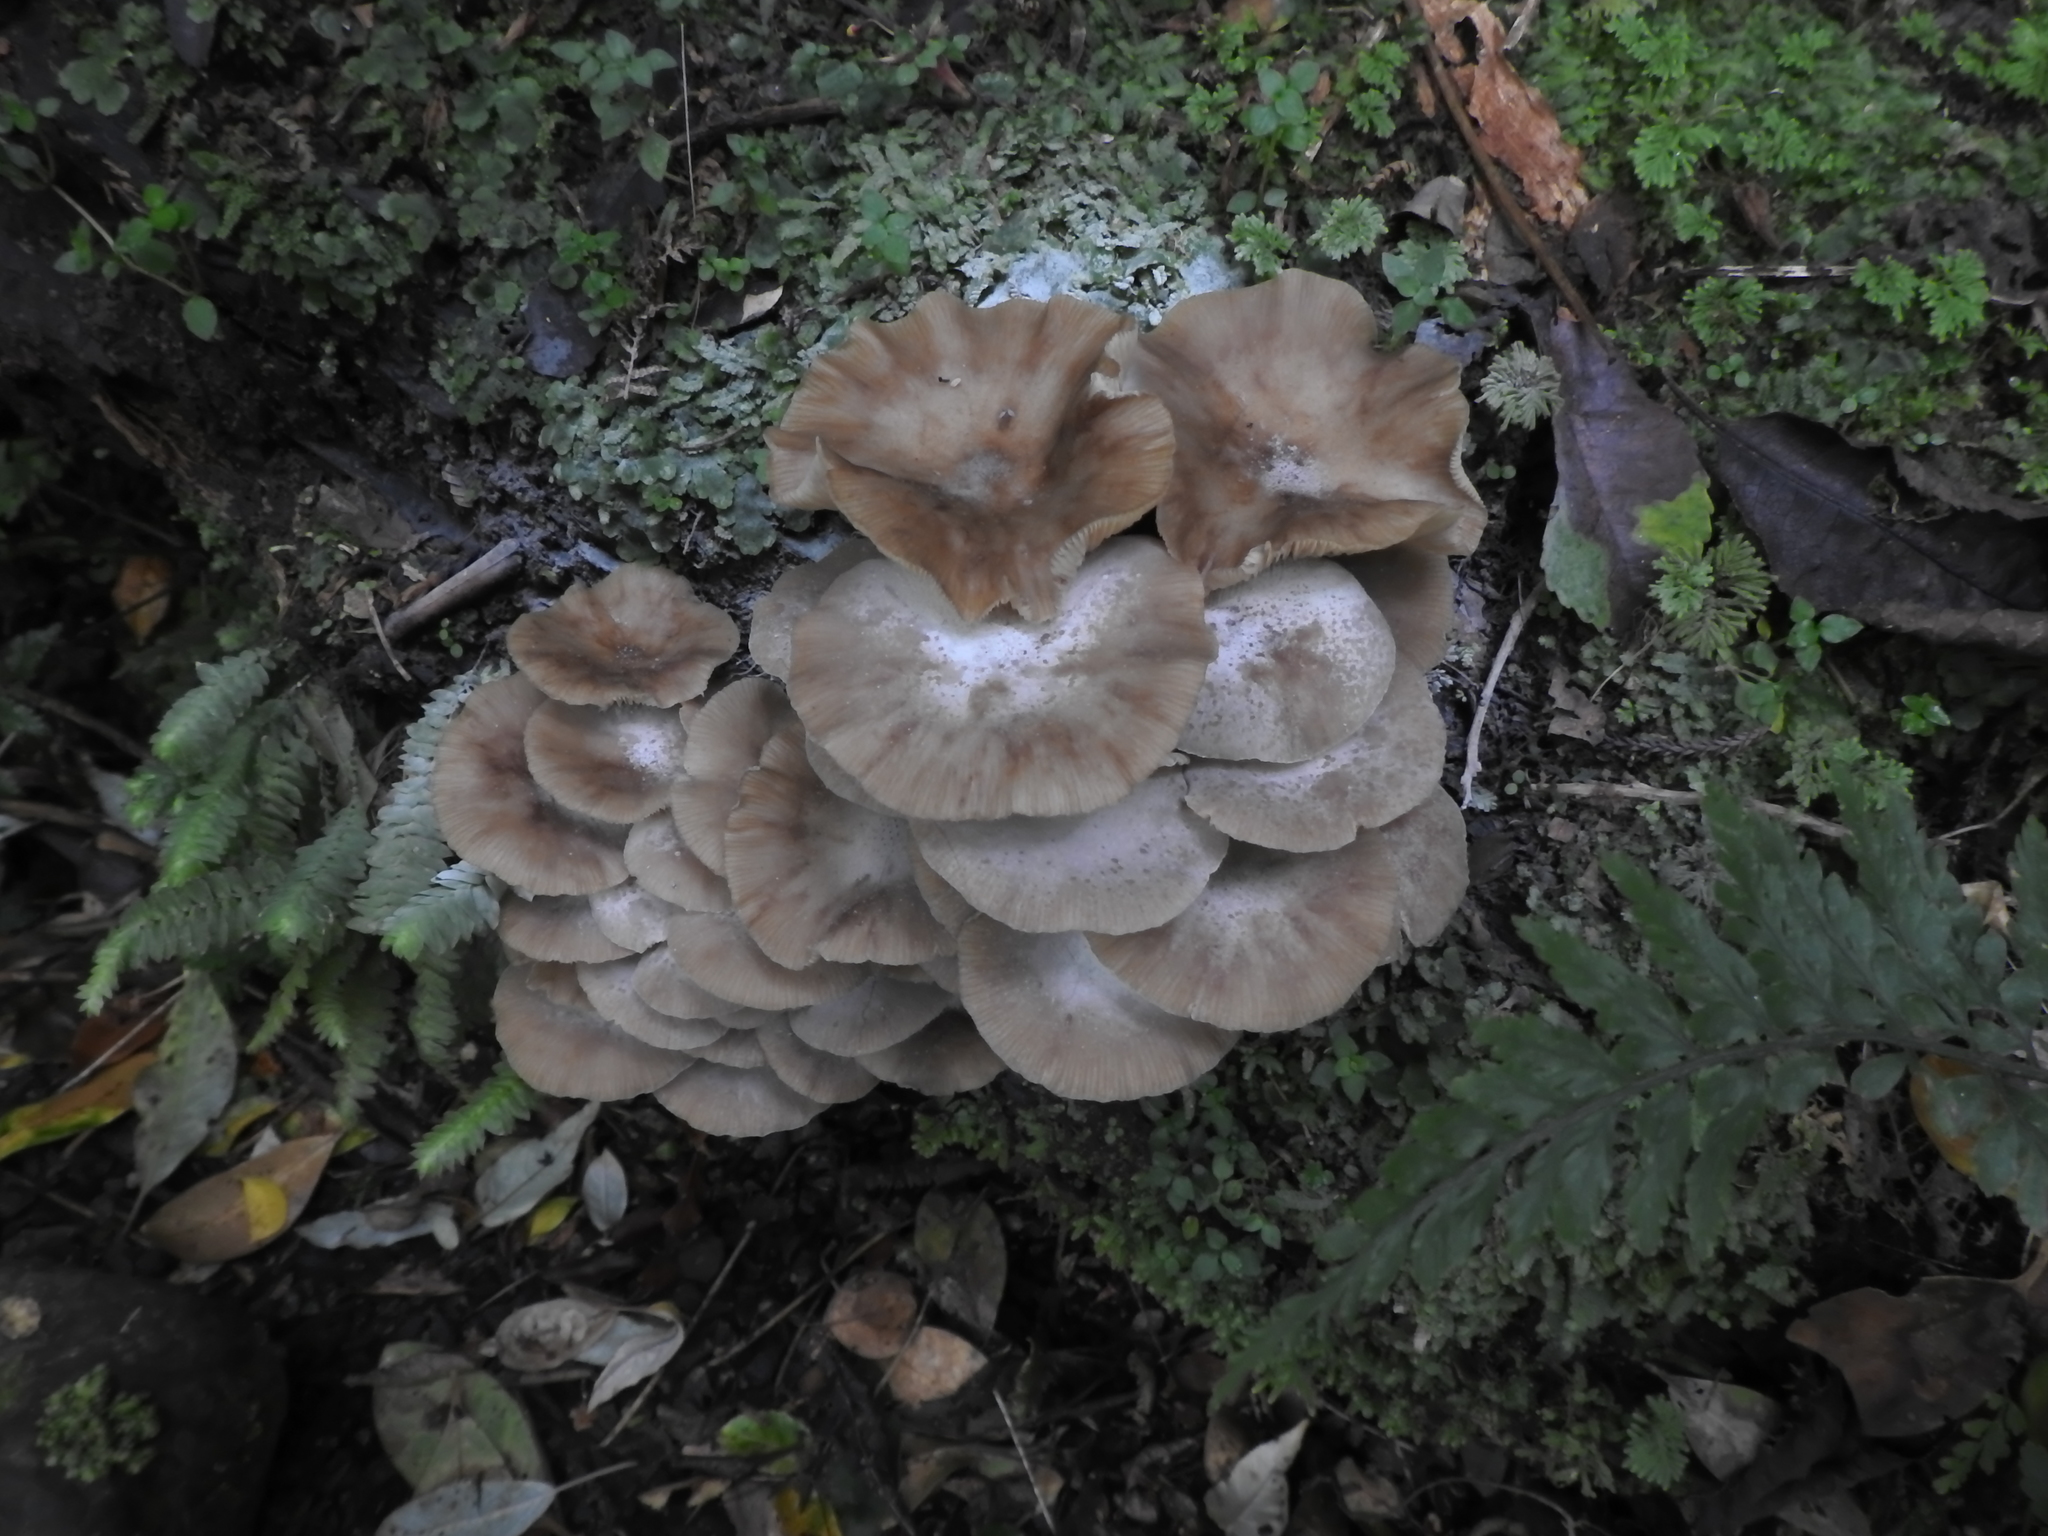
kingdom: Fungi
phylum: Basidiomycota
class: Agaricomycetes
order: Agaricales
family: Physalacriaceae
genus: Armillaria
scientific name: Armillaria novae-zelandiae
